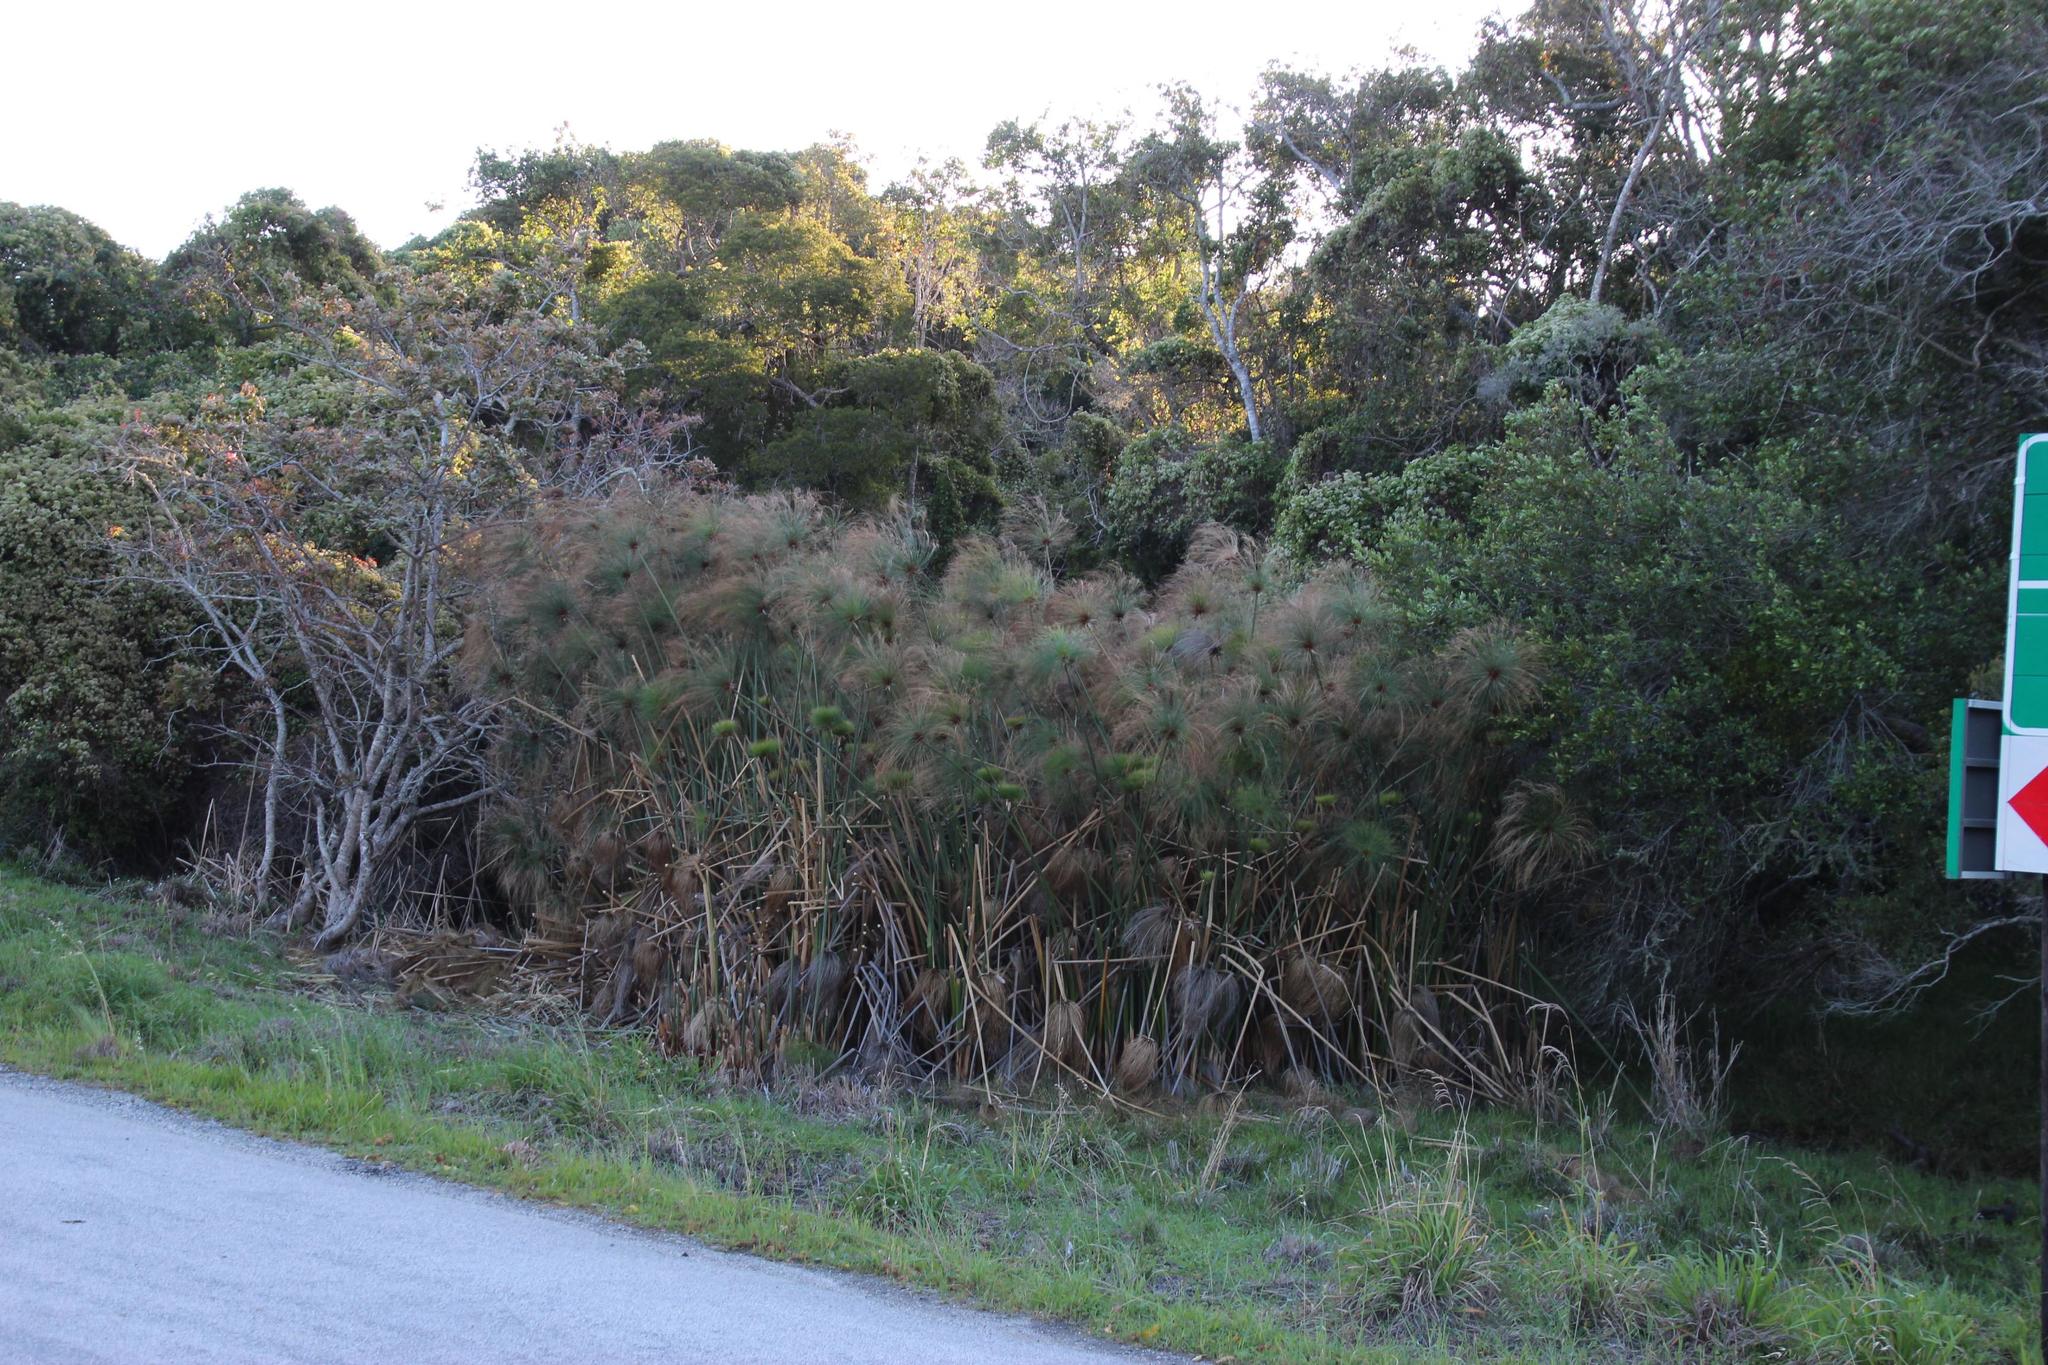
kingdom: Plantae
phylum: Tracheophyta
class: Liliopsida
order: Poales
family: Cyperaceae
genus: Cyperus
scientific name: Cyperus papyrus
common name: Papyrus
